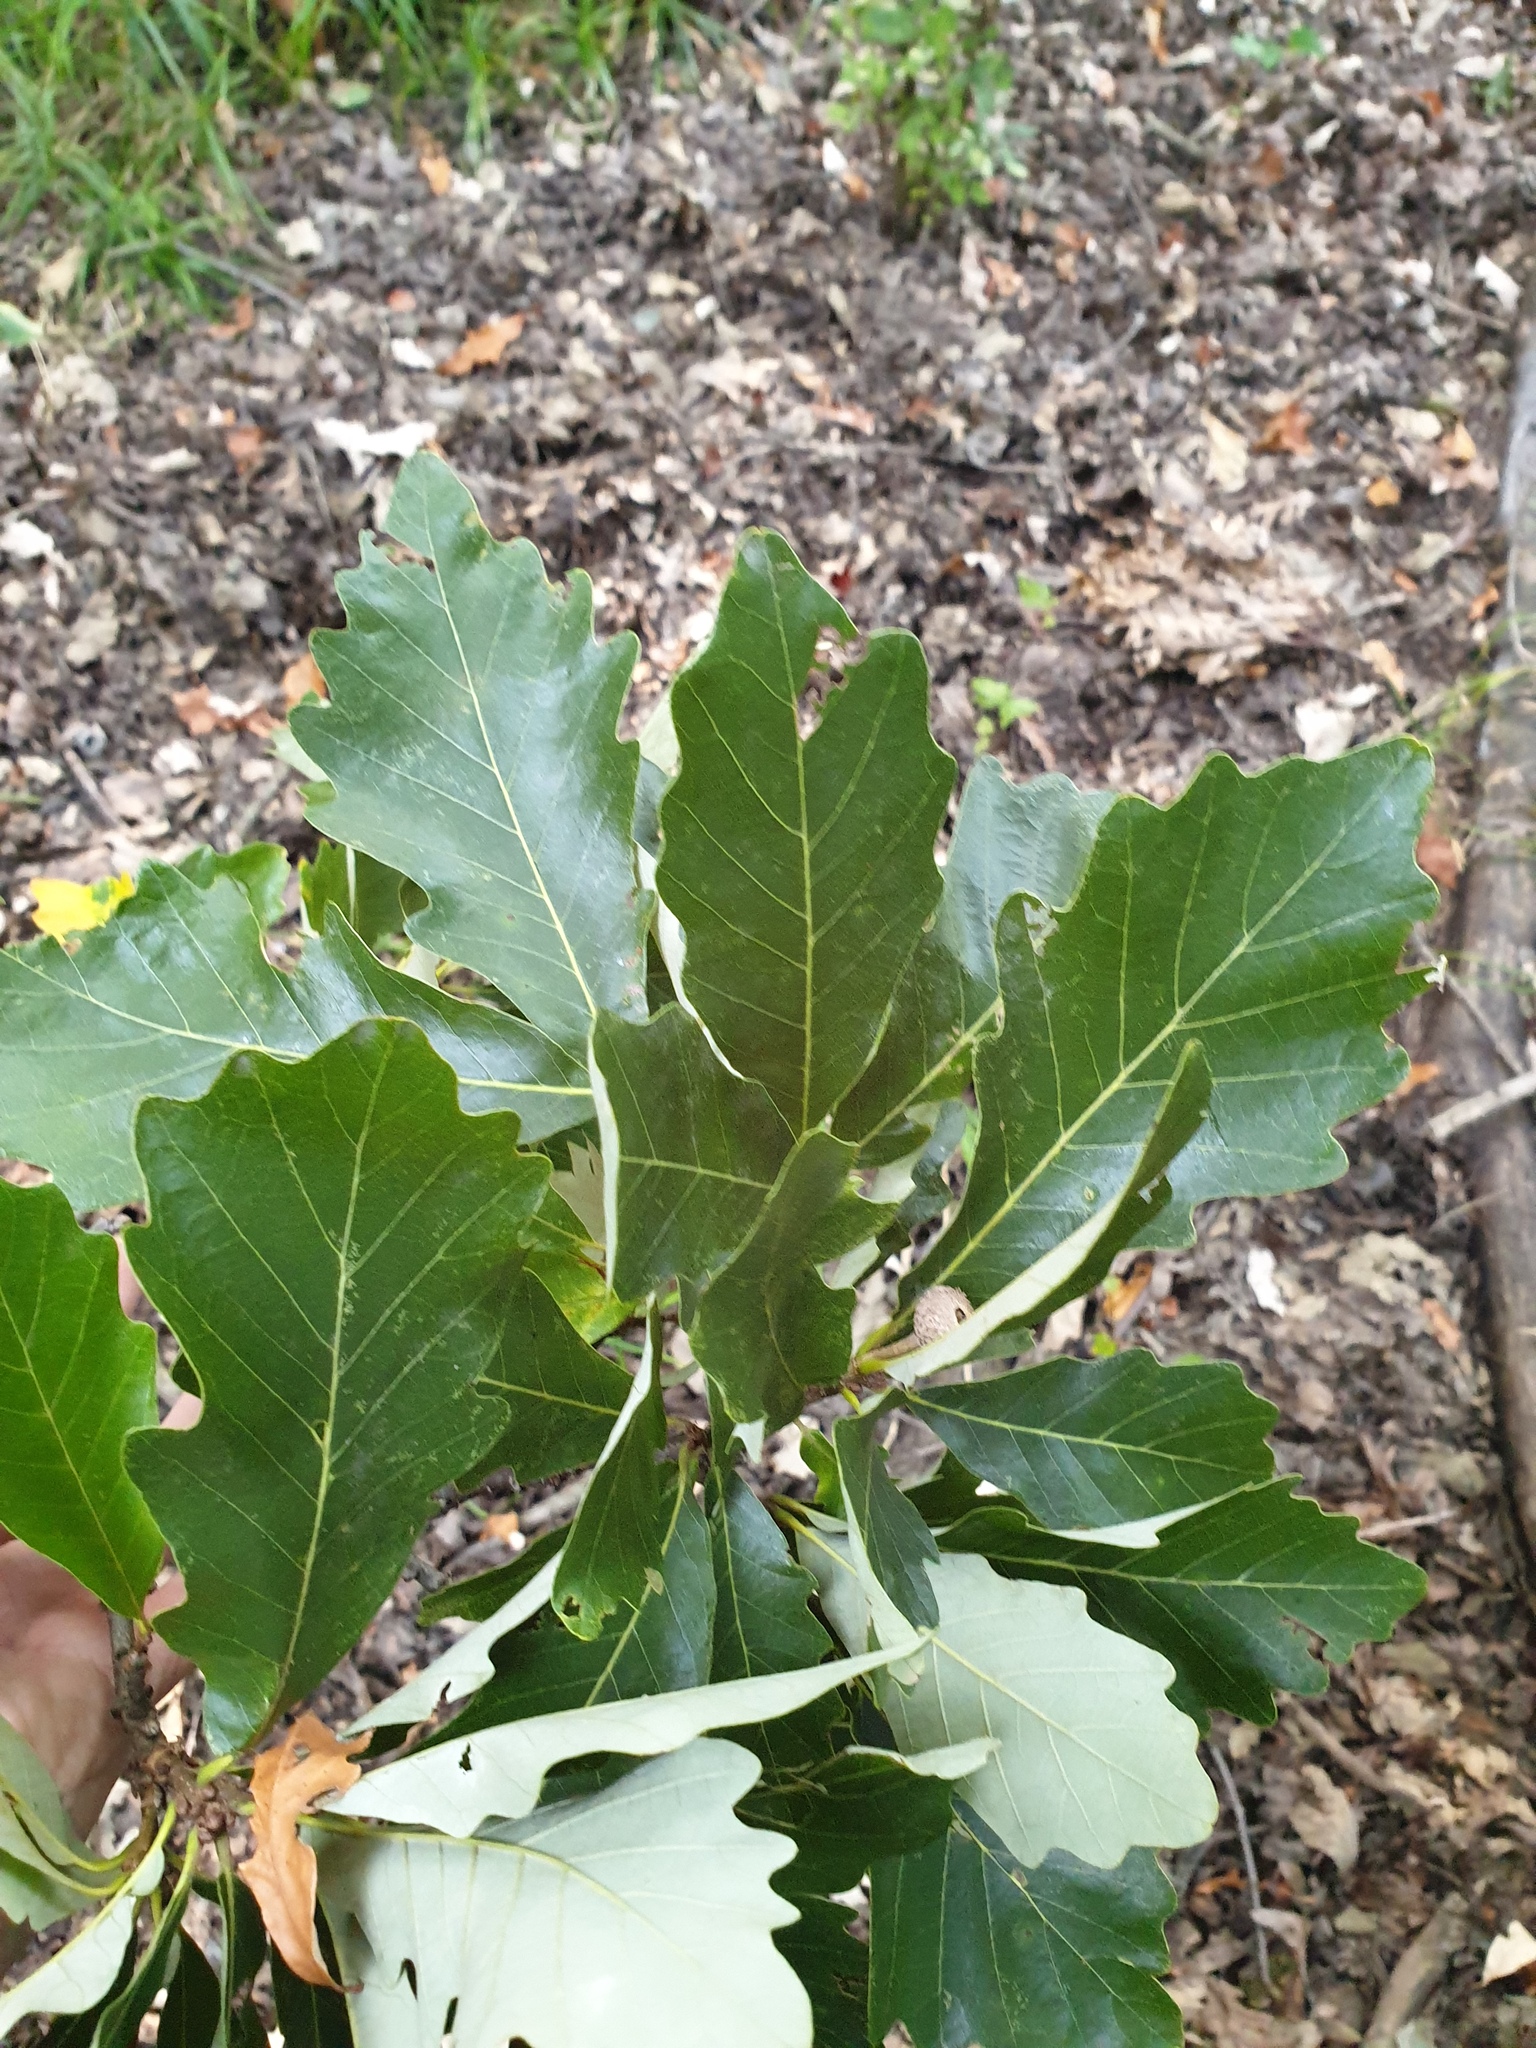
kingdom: Plantae
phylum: Tracheophyta
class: Magnoliopsida
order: Fagales
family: Fagaceae
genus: Quercus
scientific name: Quercus bicolor
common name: Swamp white oak
